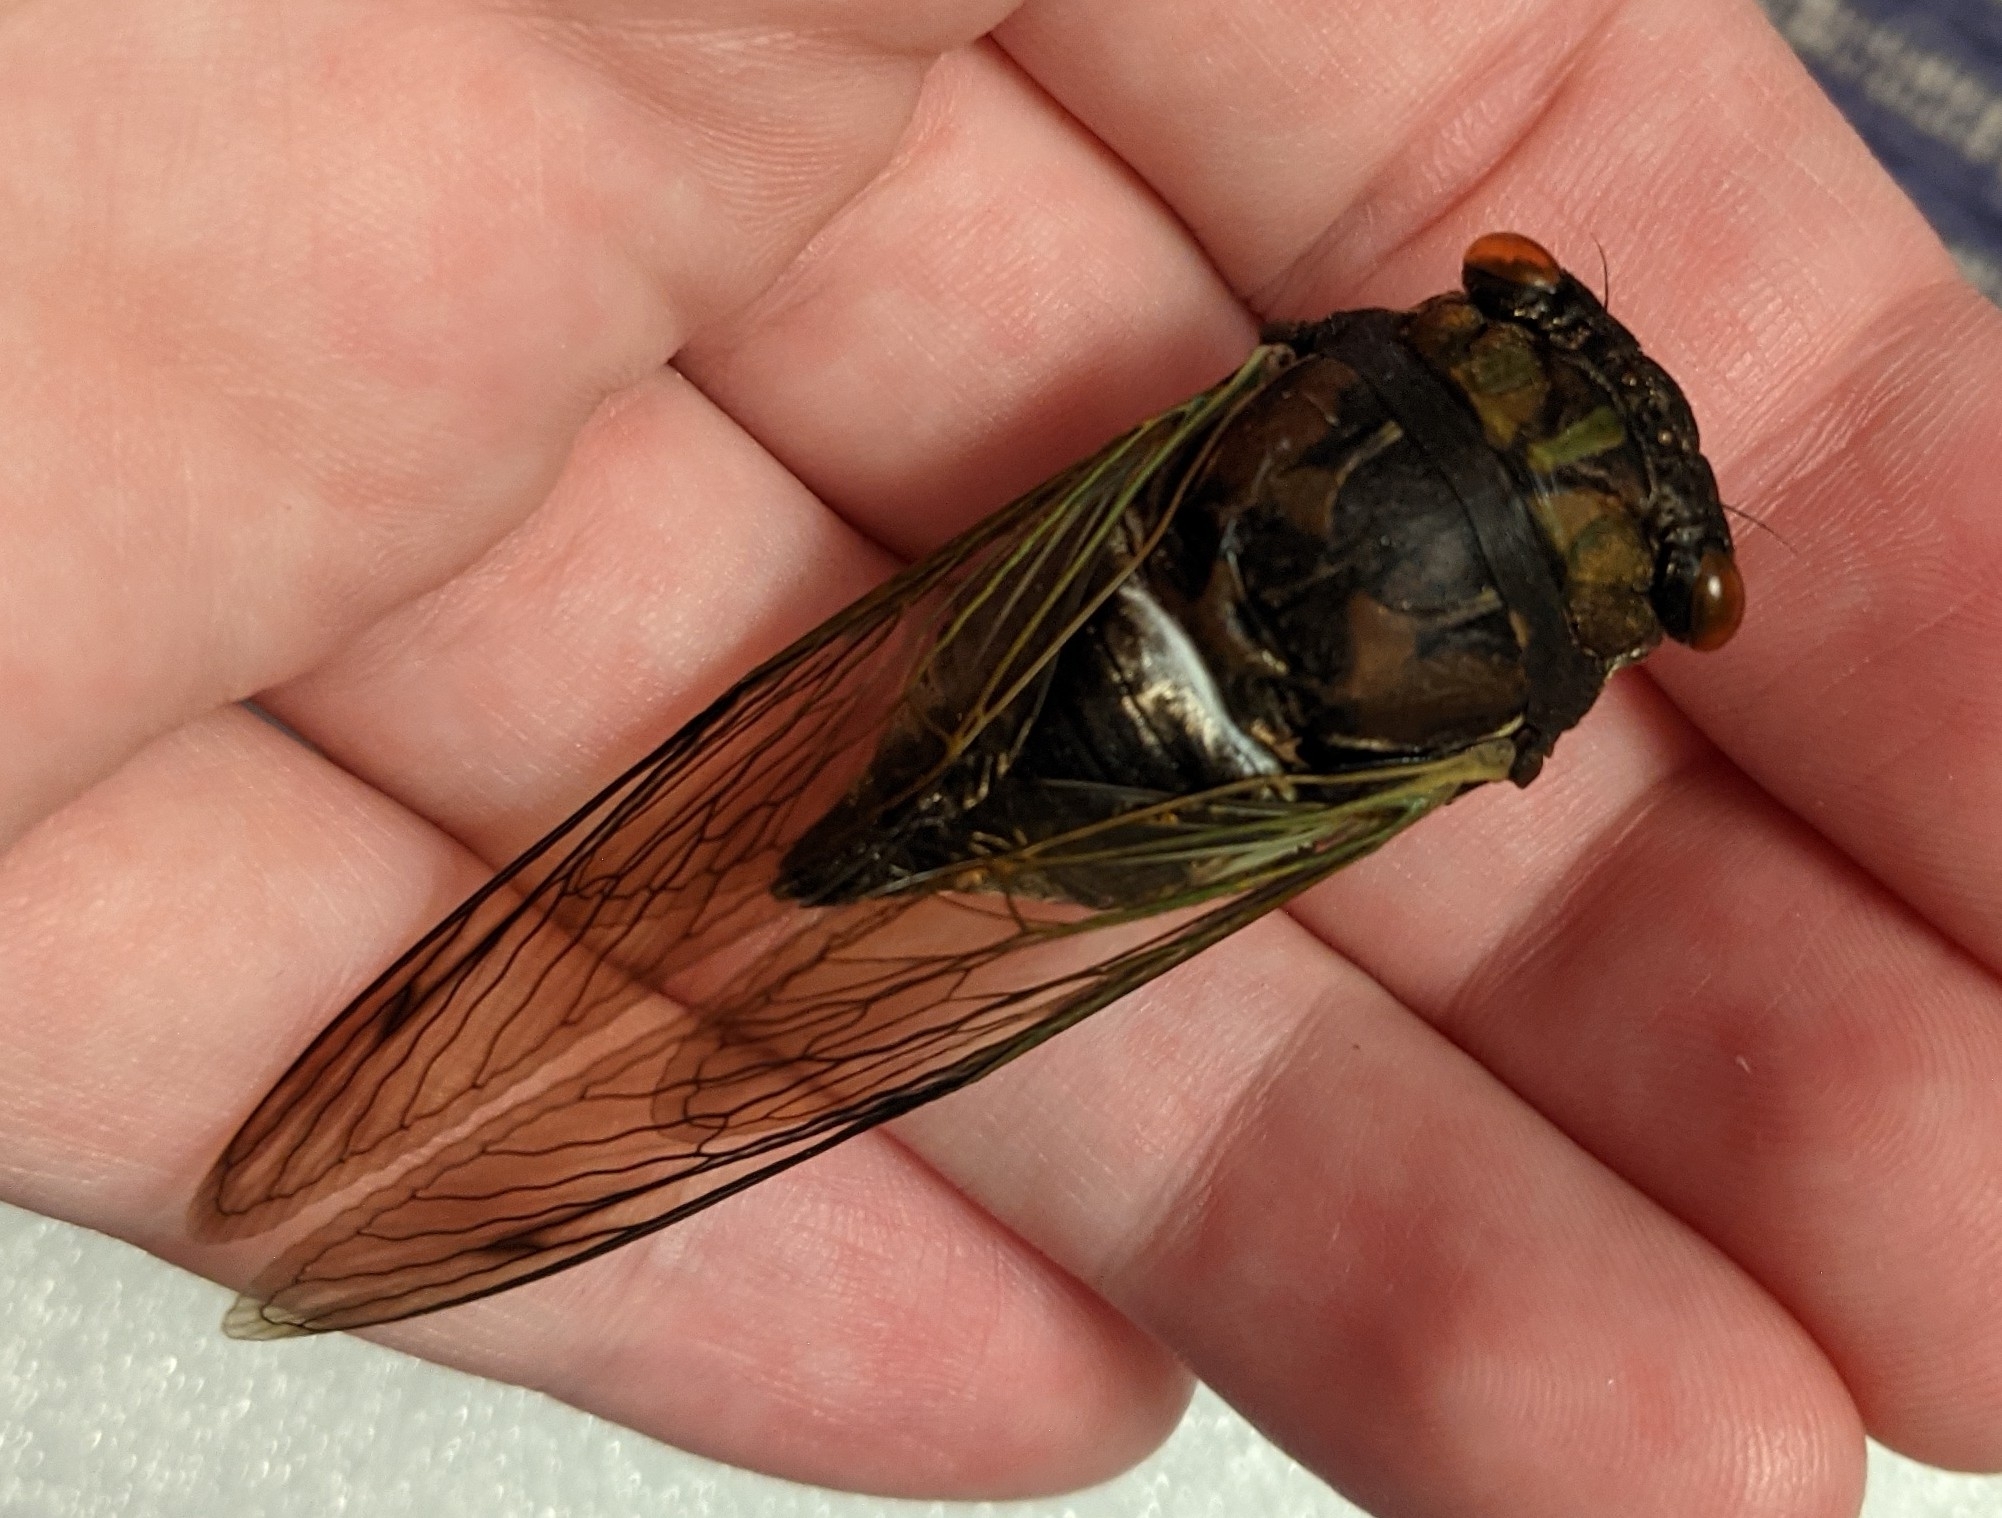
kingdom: Animalia
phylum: Arthropoda
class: Insecta
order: Hemiptera
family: Cicadidae
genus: Neotibicen
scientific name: Neotibicen lyricen
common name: Lyric cicada
